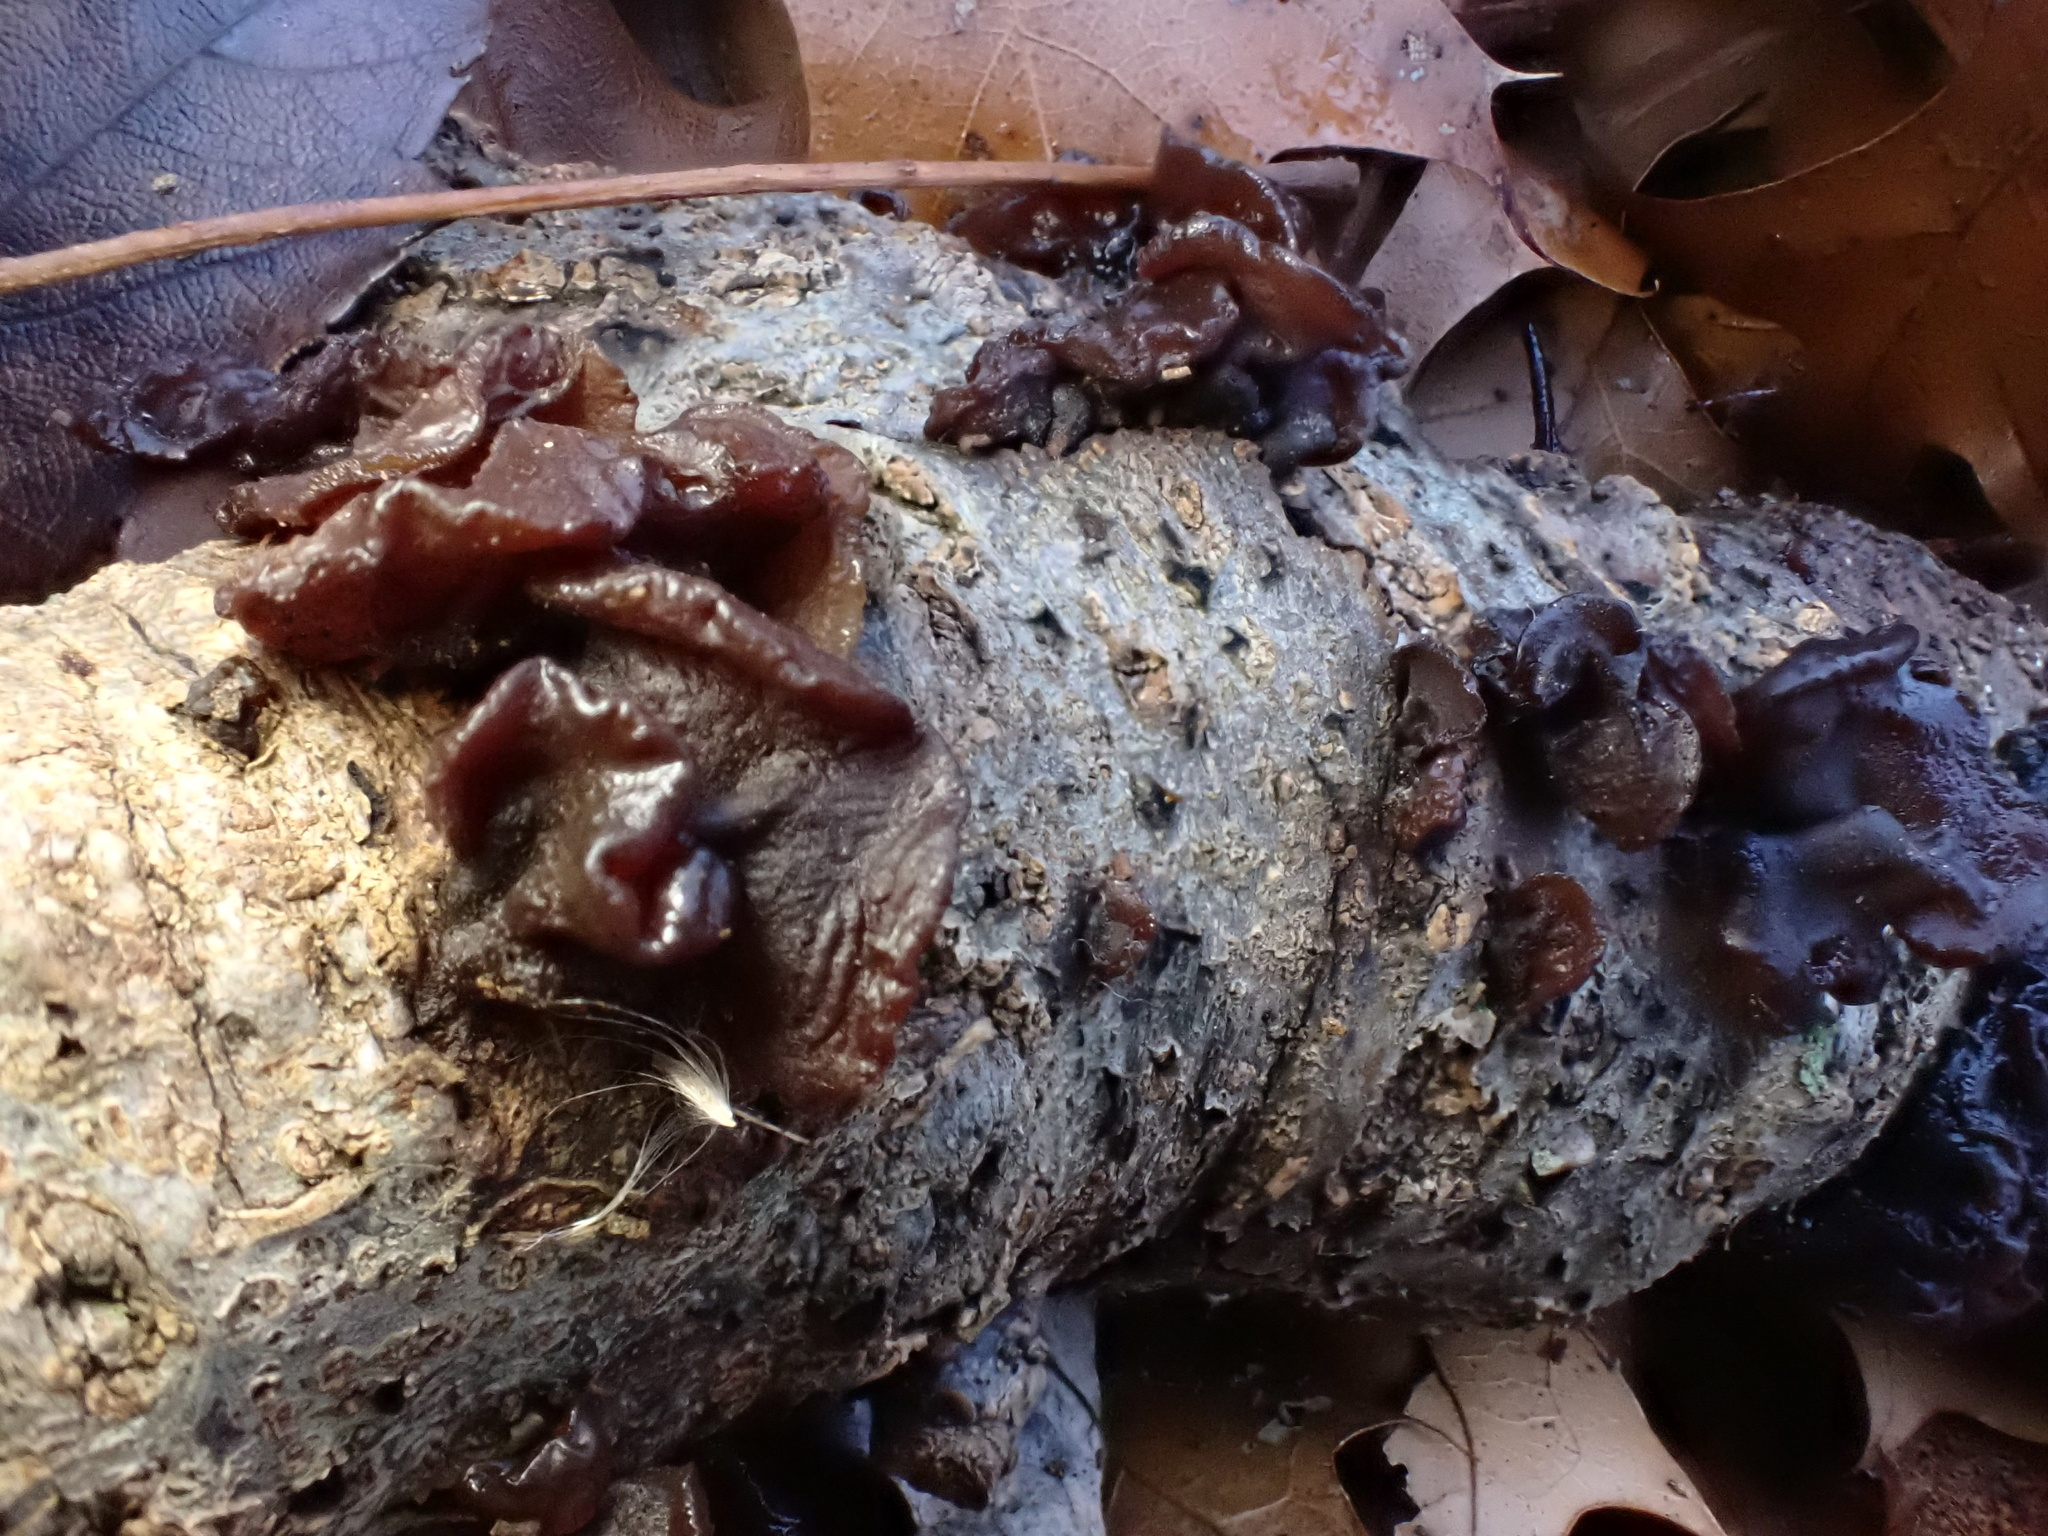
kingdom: Fungi
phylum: Basidiomycota
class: Agaricomycetes
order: Auriculariales
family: Auriculariaceae
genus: Exidia
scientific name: Exidia
